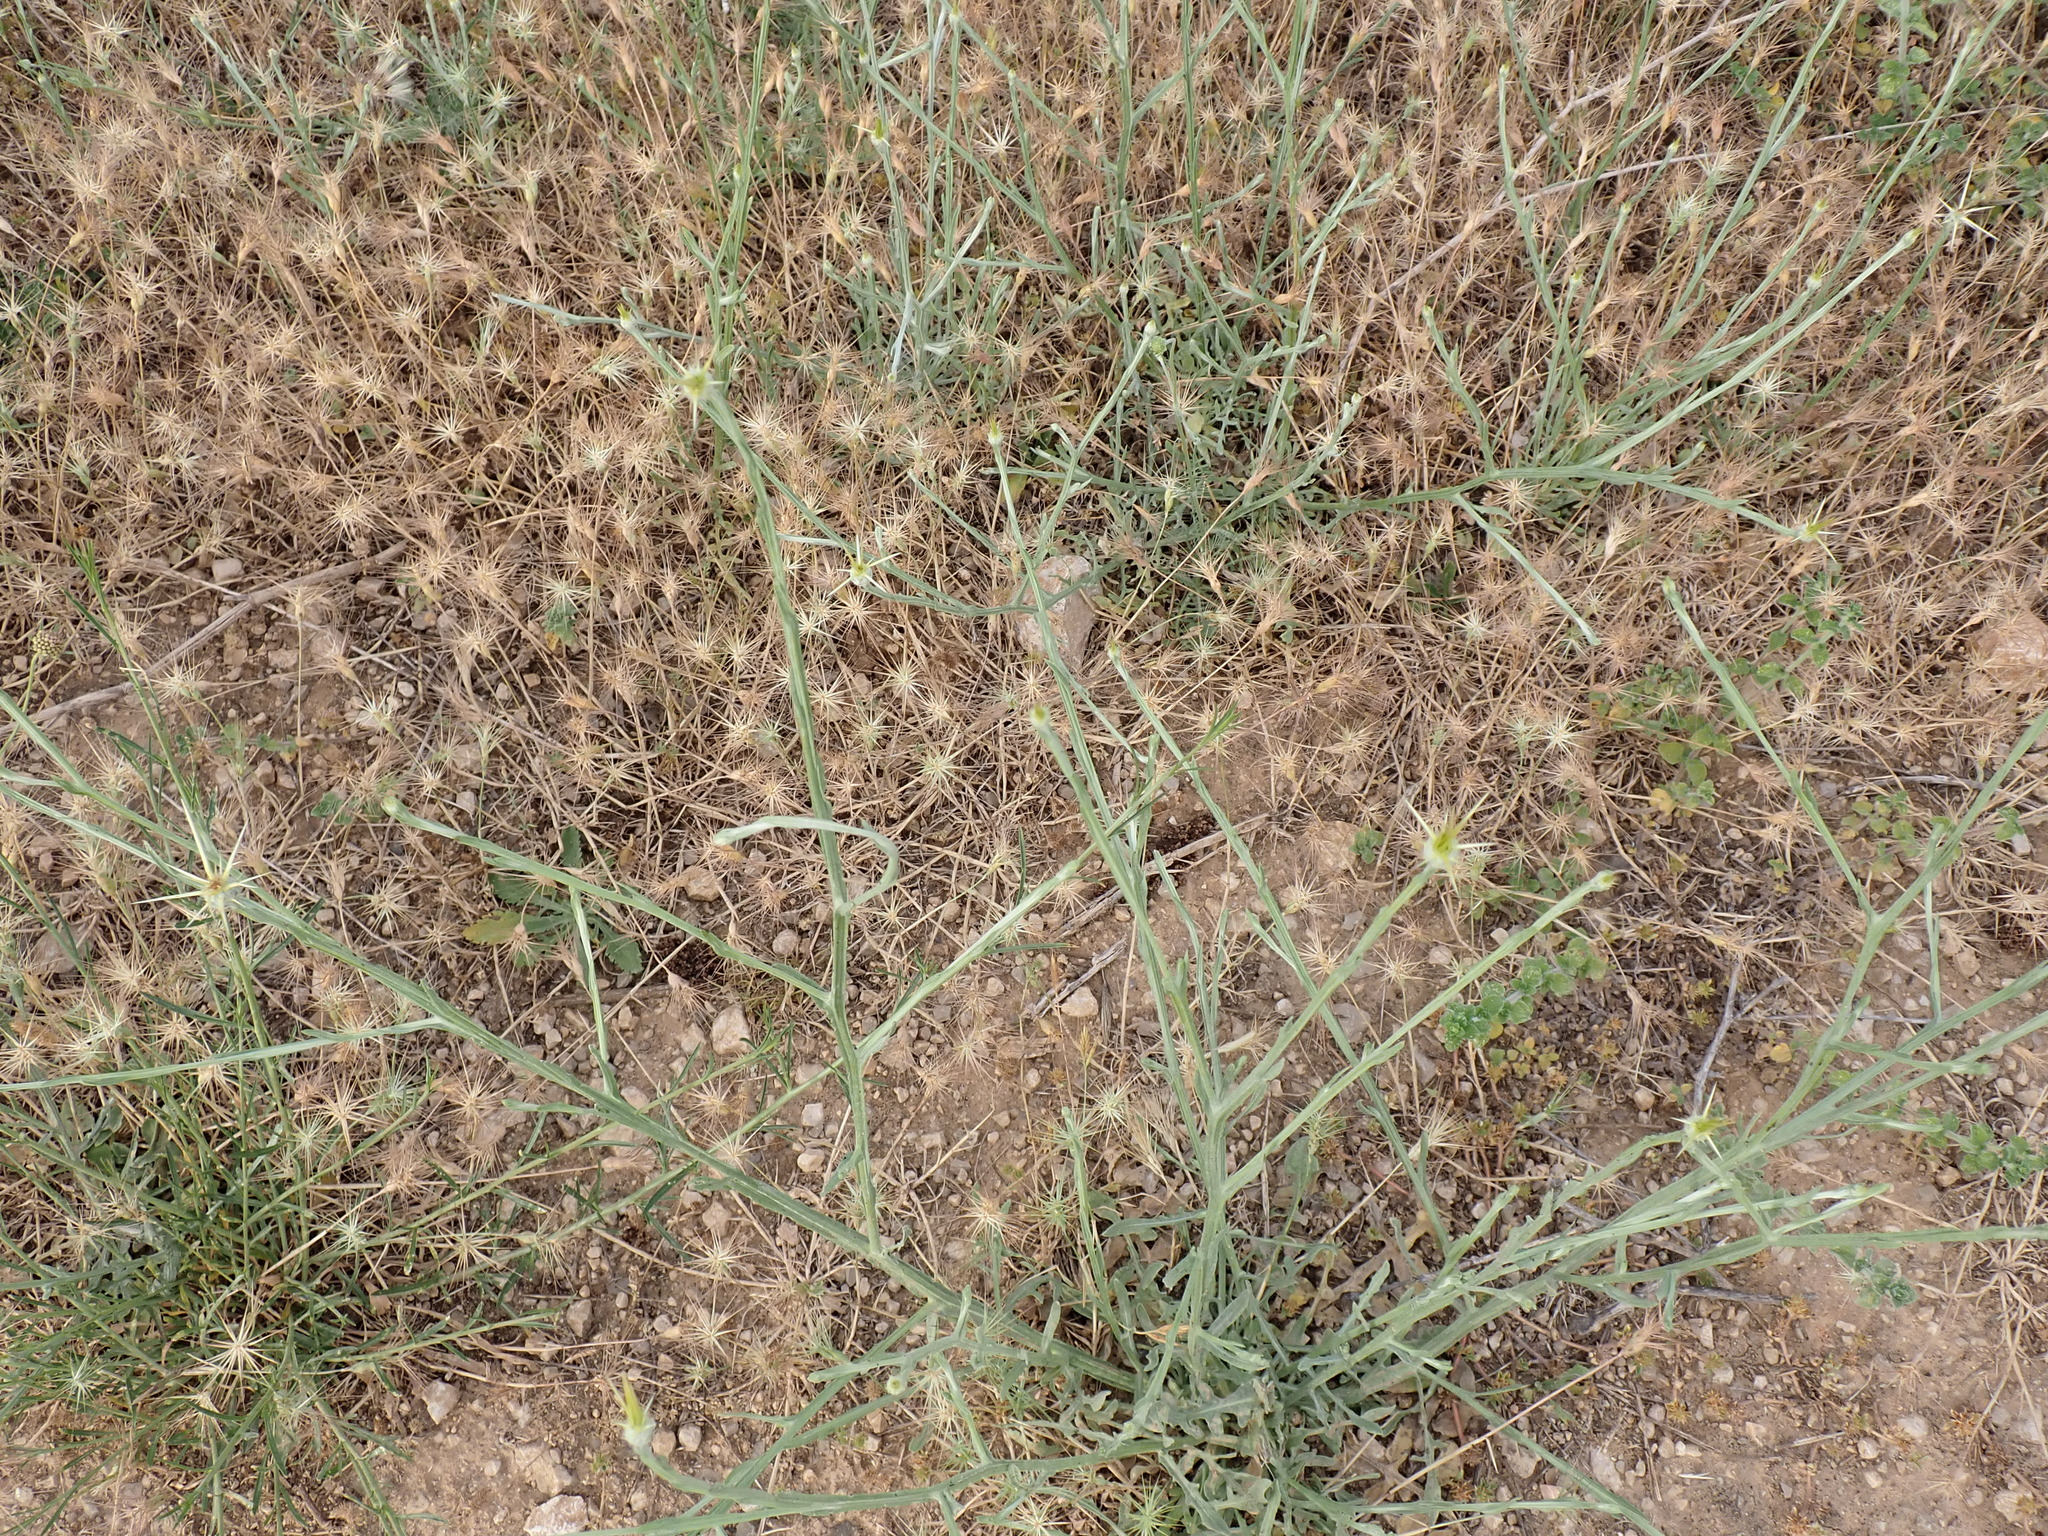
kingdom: Plantae
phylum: Tracheophyta
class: Magnoliopsida
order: Asterales
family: Asteraceae
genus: Centaurea
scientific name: Centaurea solstitialis
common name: Yellow star-thistle
